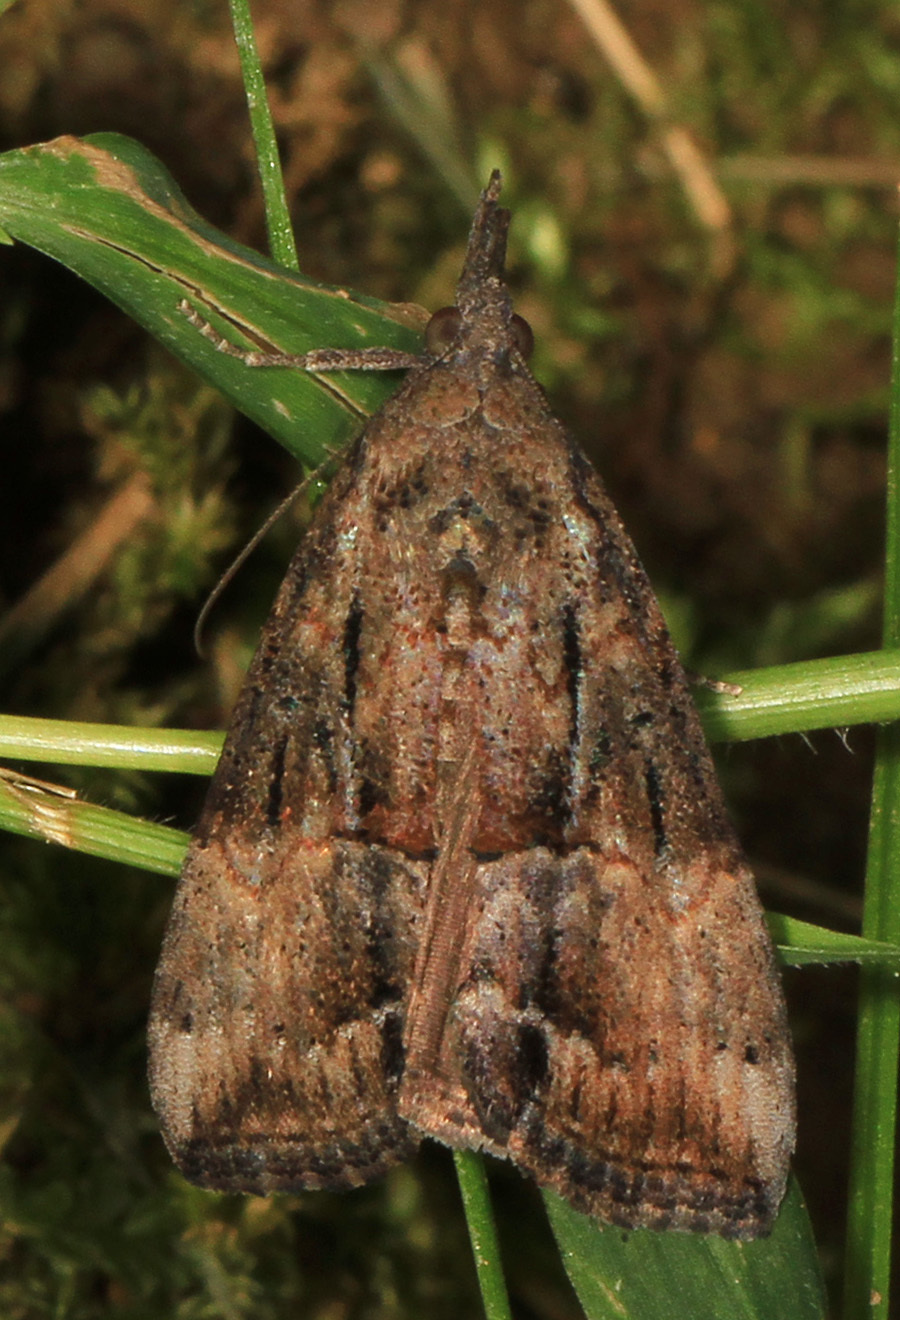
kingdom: Animalia
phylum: Arthropoda
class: Insecta
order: Lepidoptera
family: Erebidae
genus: Hypena
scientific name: Hypena scabra
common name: Green cloverworm
